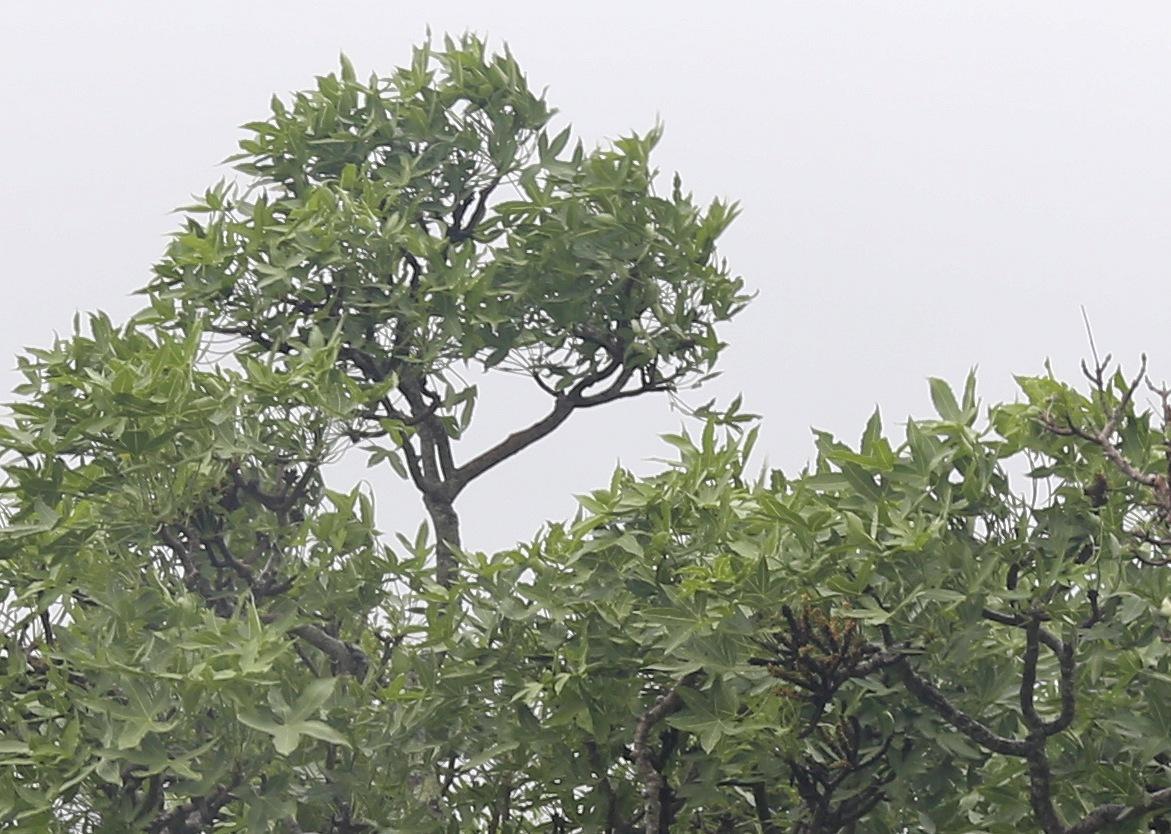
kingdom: Plantae
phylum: Tracheophyta
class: Magnoliopsida
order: Apiales
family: Araliaceae
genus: Cussonia
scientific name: Cussonia natalensis
